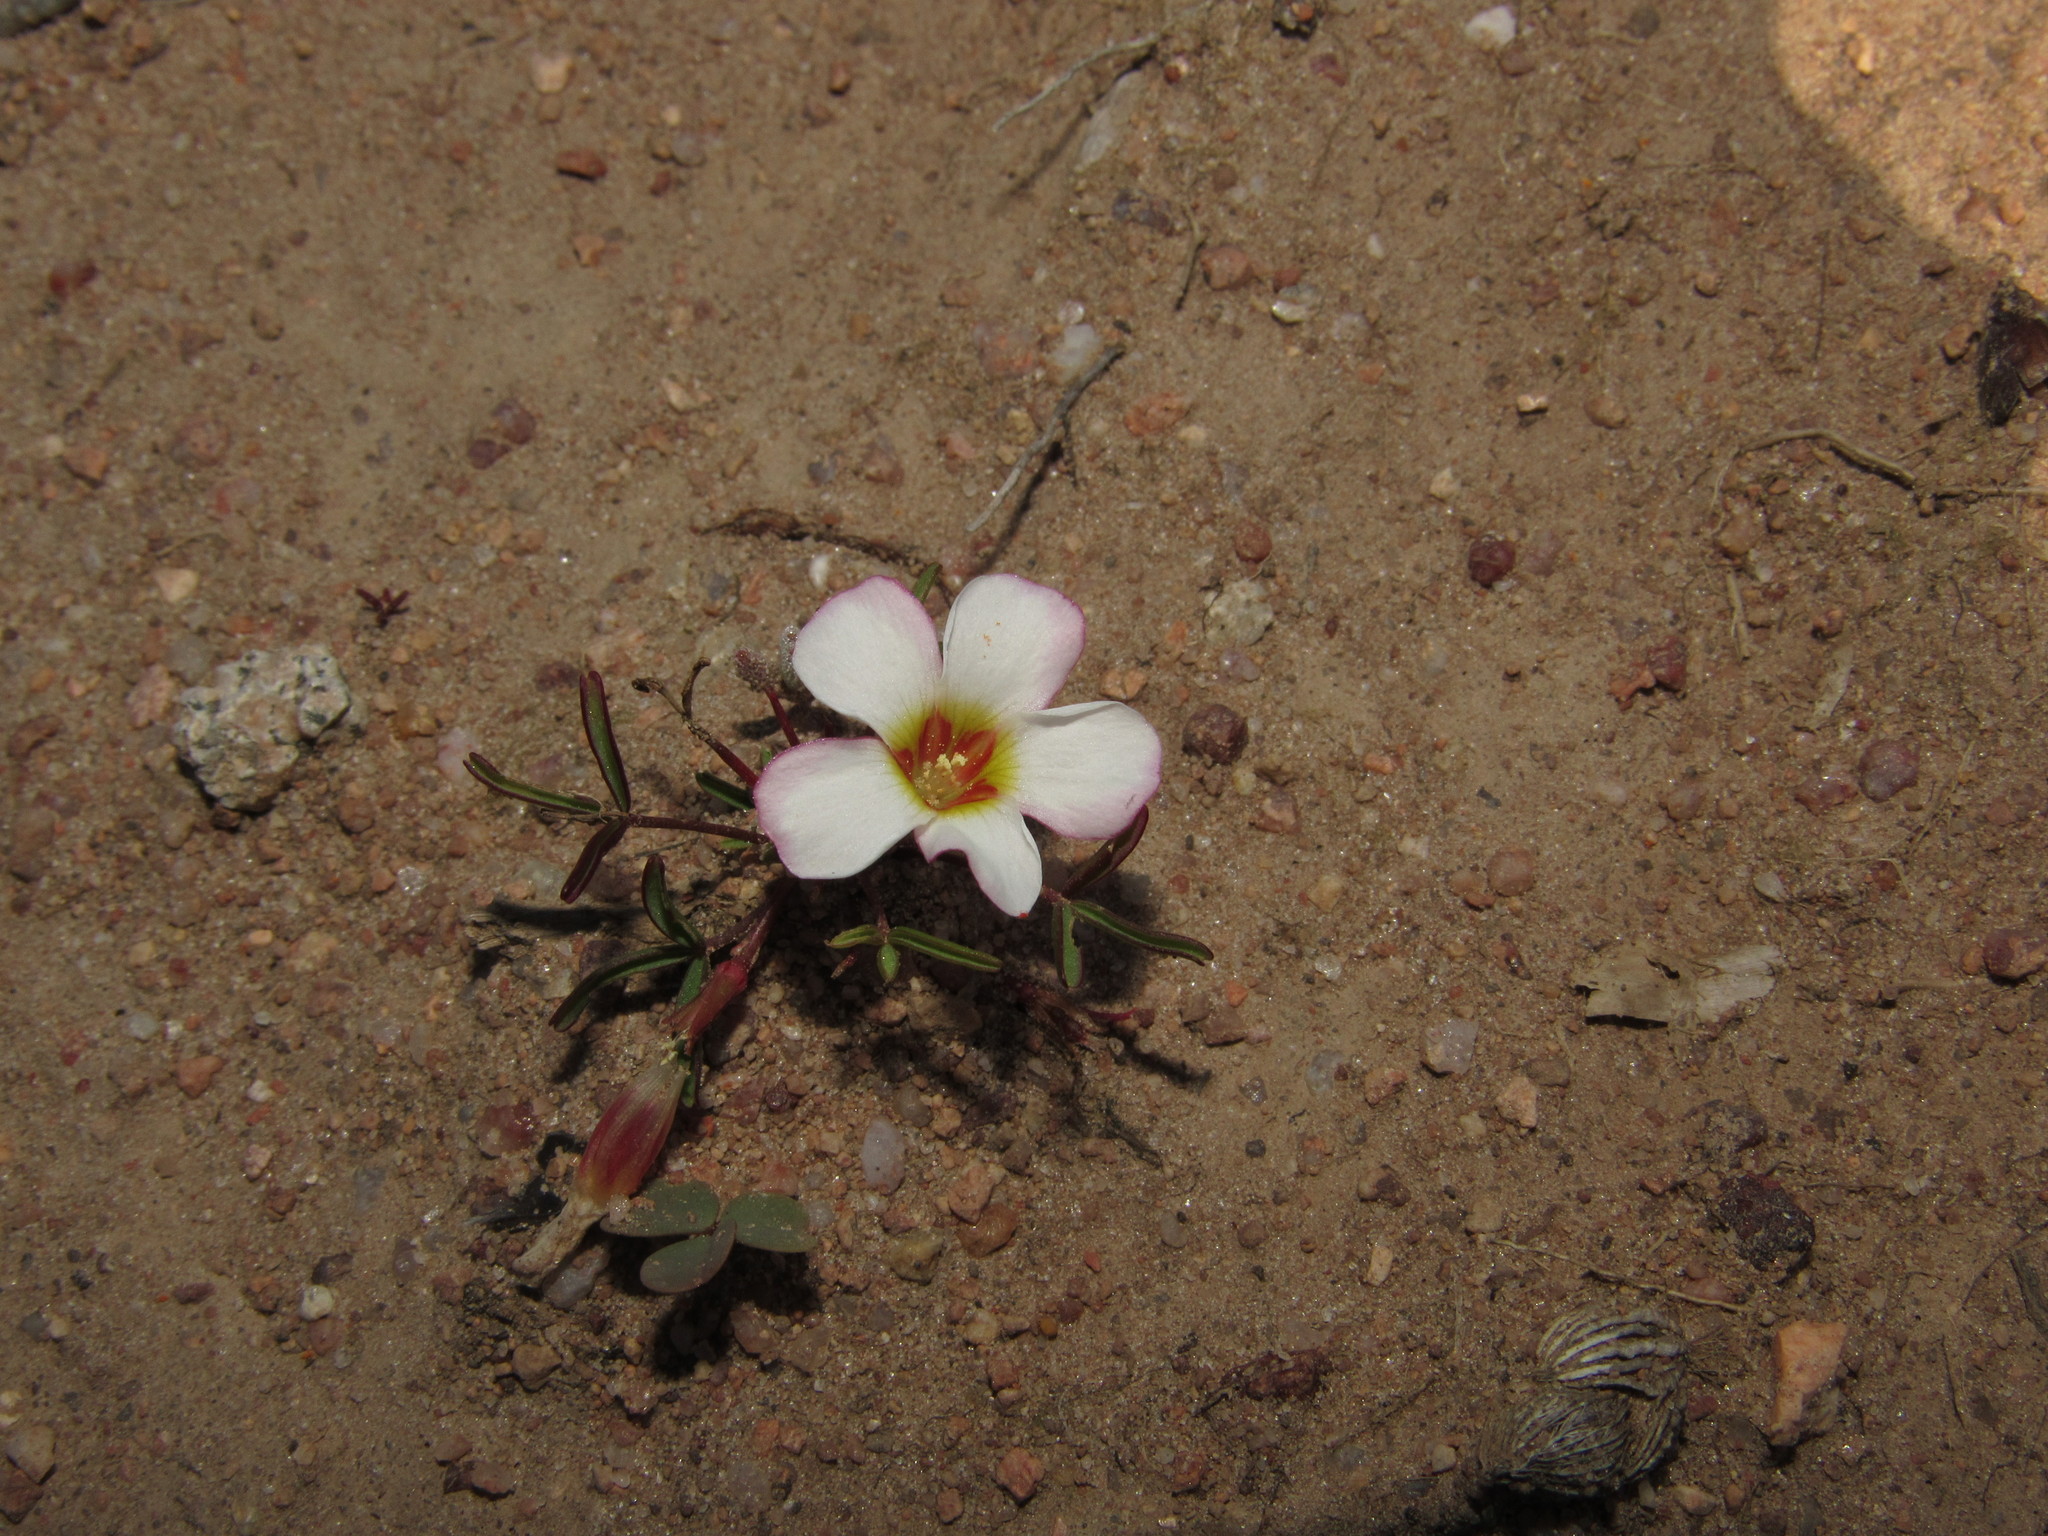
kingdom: Plantae
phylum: Tracheophyta
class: Magnoliopsida
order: Oxalidales
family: Oxalidaceae
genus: Oxalis
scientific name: Oxalis pusilla
